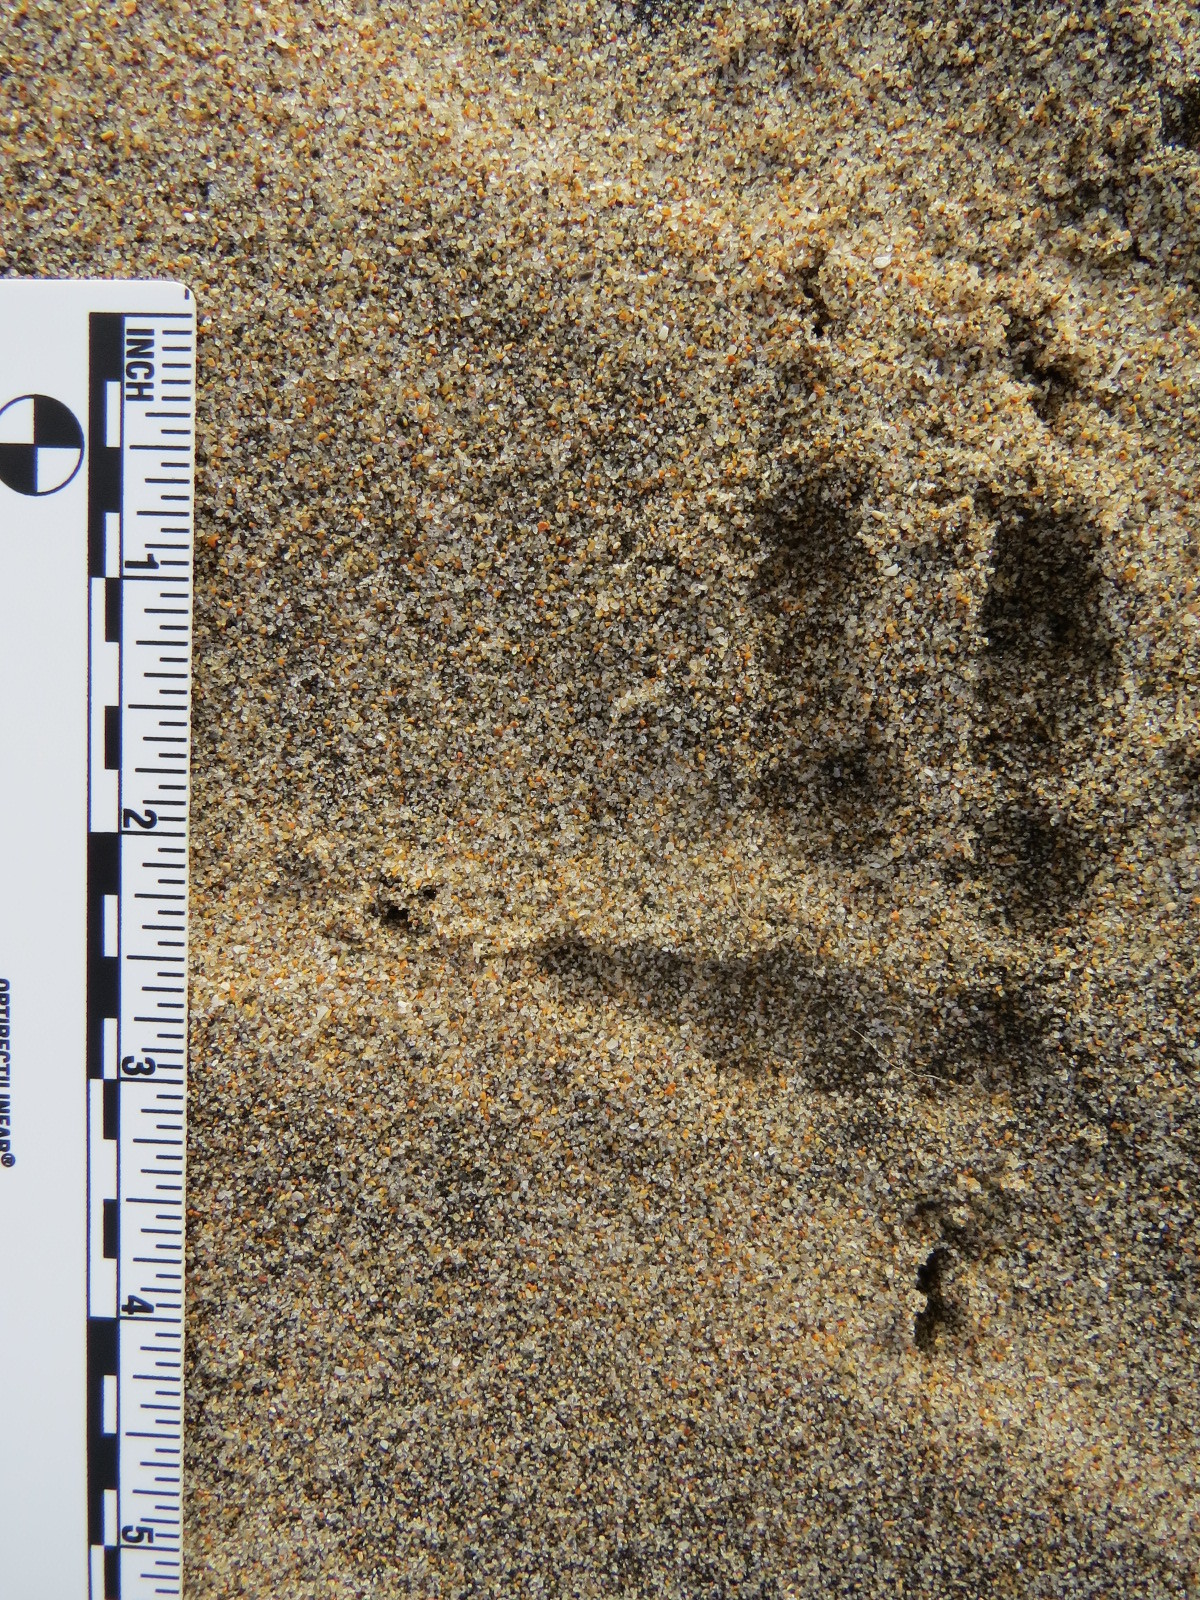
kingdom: Animalia
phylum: Chordata
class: Aves
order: Strigiformes
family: Strigidae
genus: Bubo
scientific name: Bubo virginianus
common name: Great horned owl
